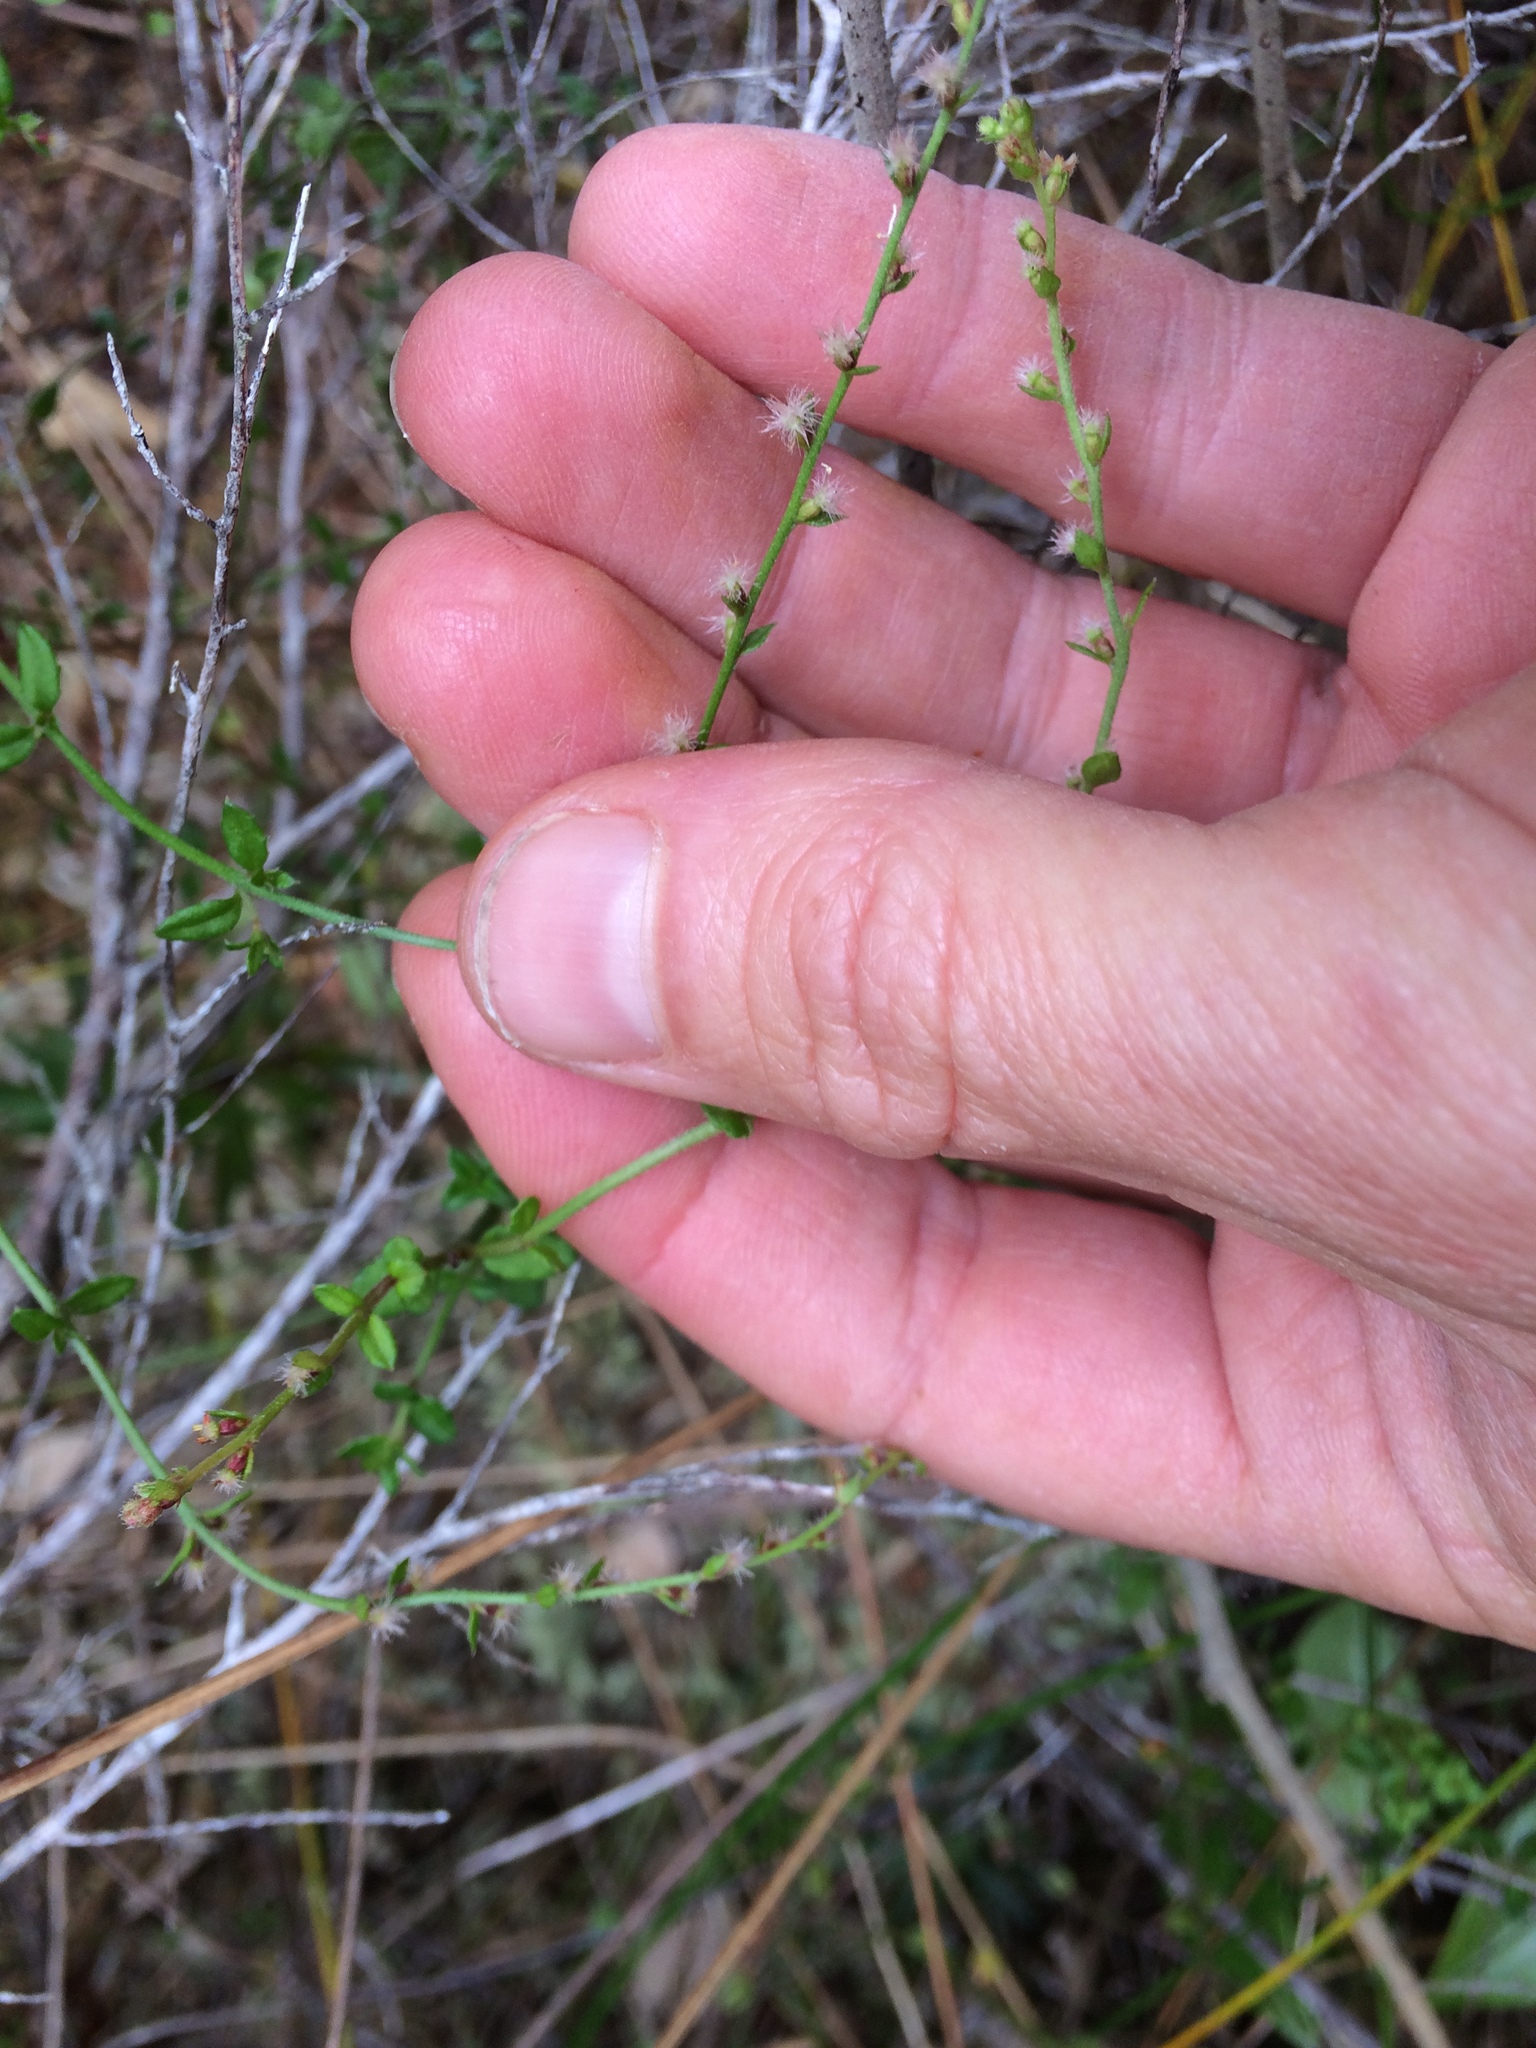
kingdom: Plantae
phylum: Tracheophyta
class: Magnoliopsida
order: Saxifragales
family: Haloragaceae
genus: Gonocarpus
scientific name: Gonocarpus aggregatus
